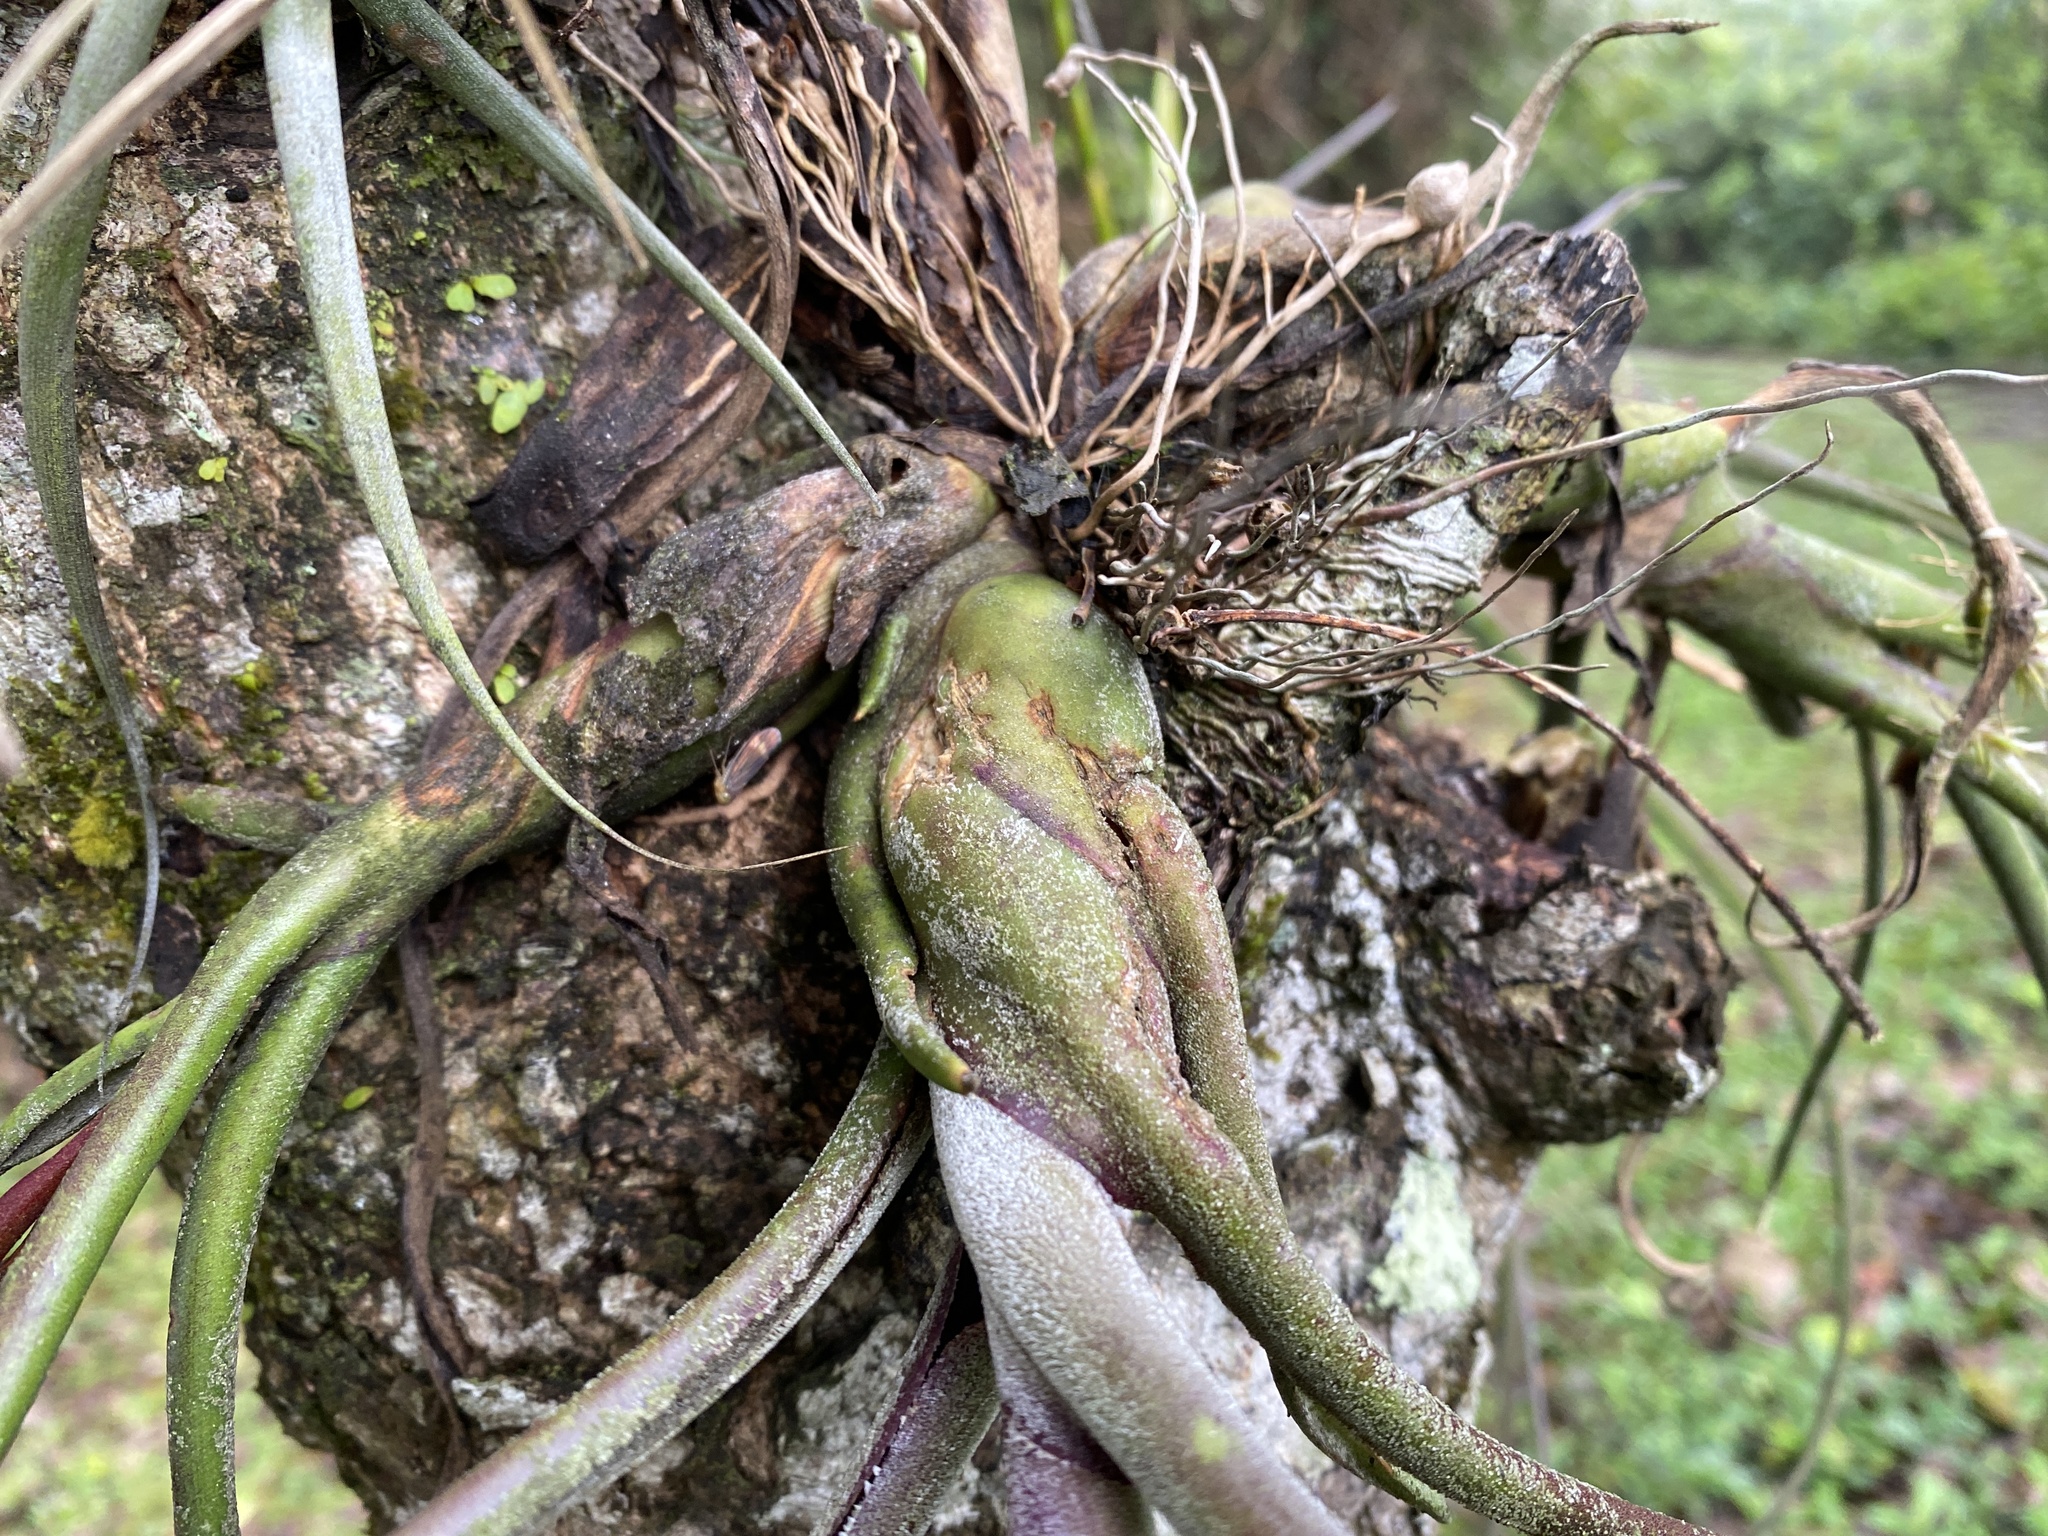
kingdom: Plantae
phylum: Tracheophyta
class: Liliopsida
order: Poales
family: Bromeliaceae
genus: Tillandsia
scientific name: Tillandsia caput-medusae
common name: Octopus plant
